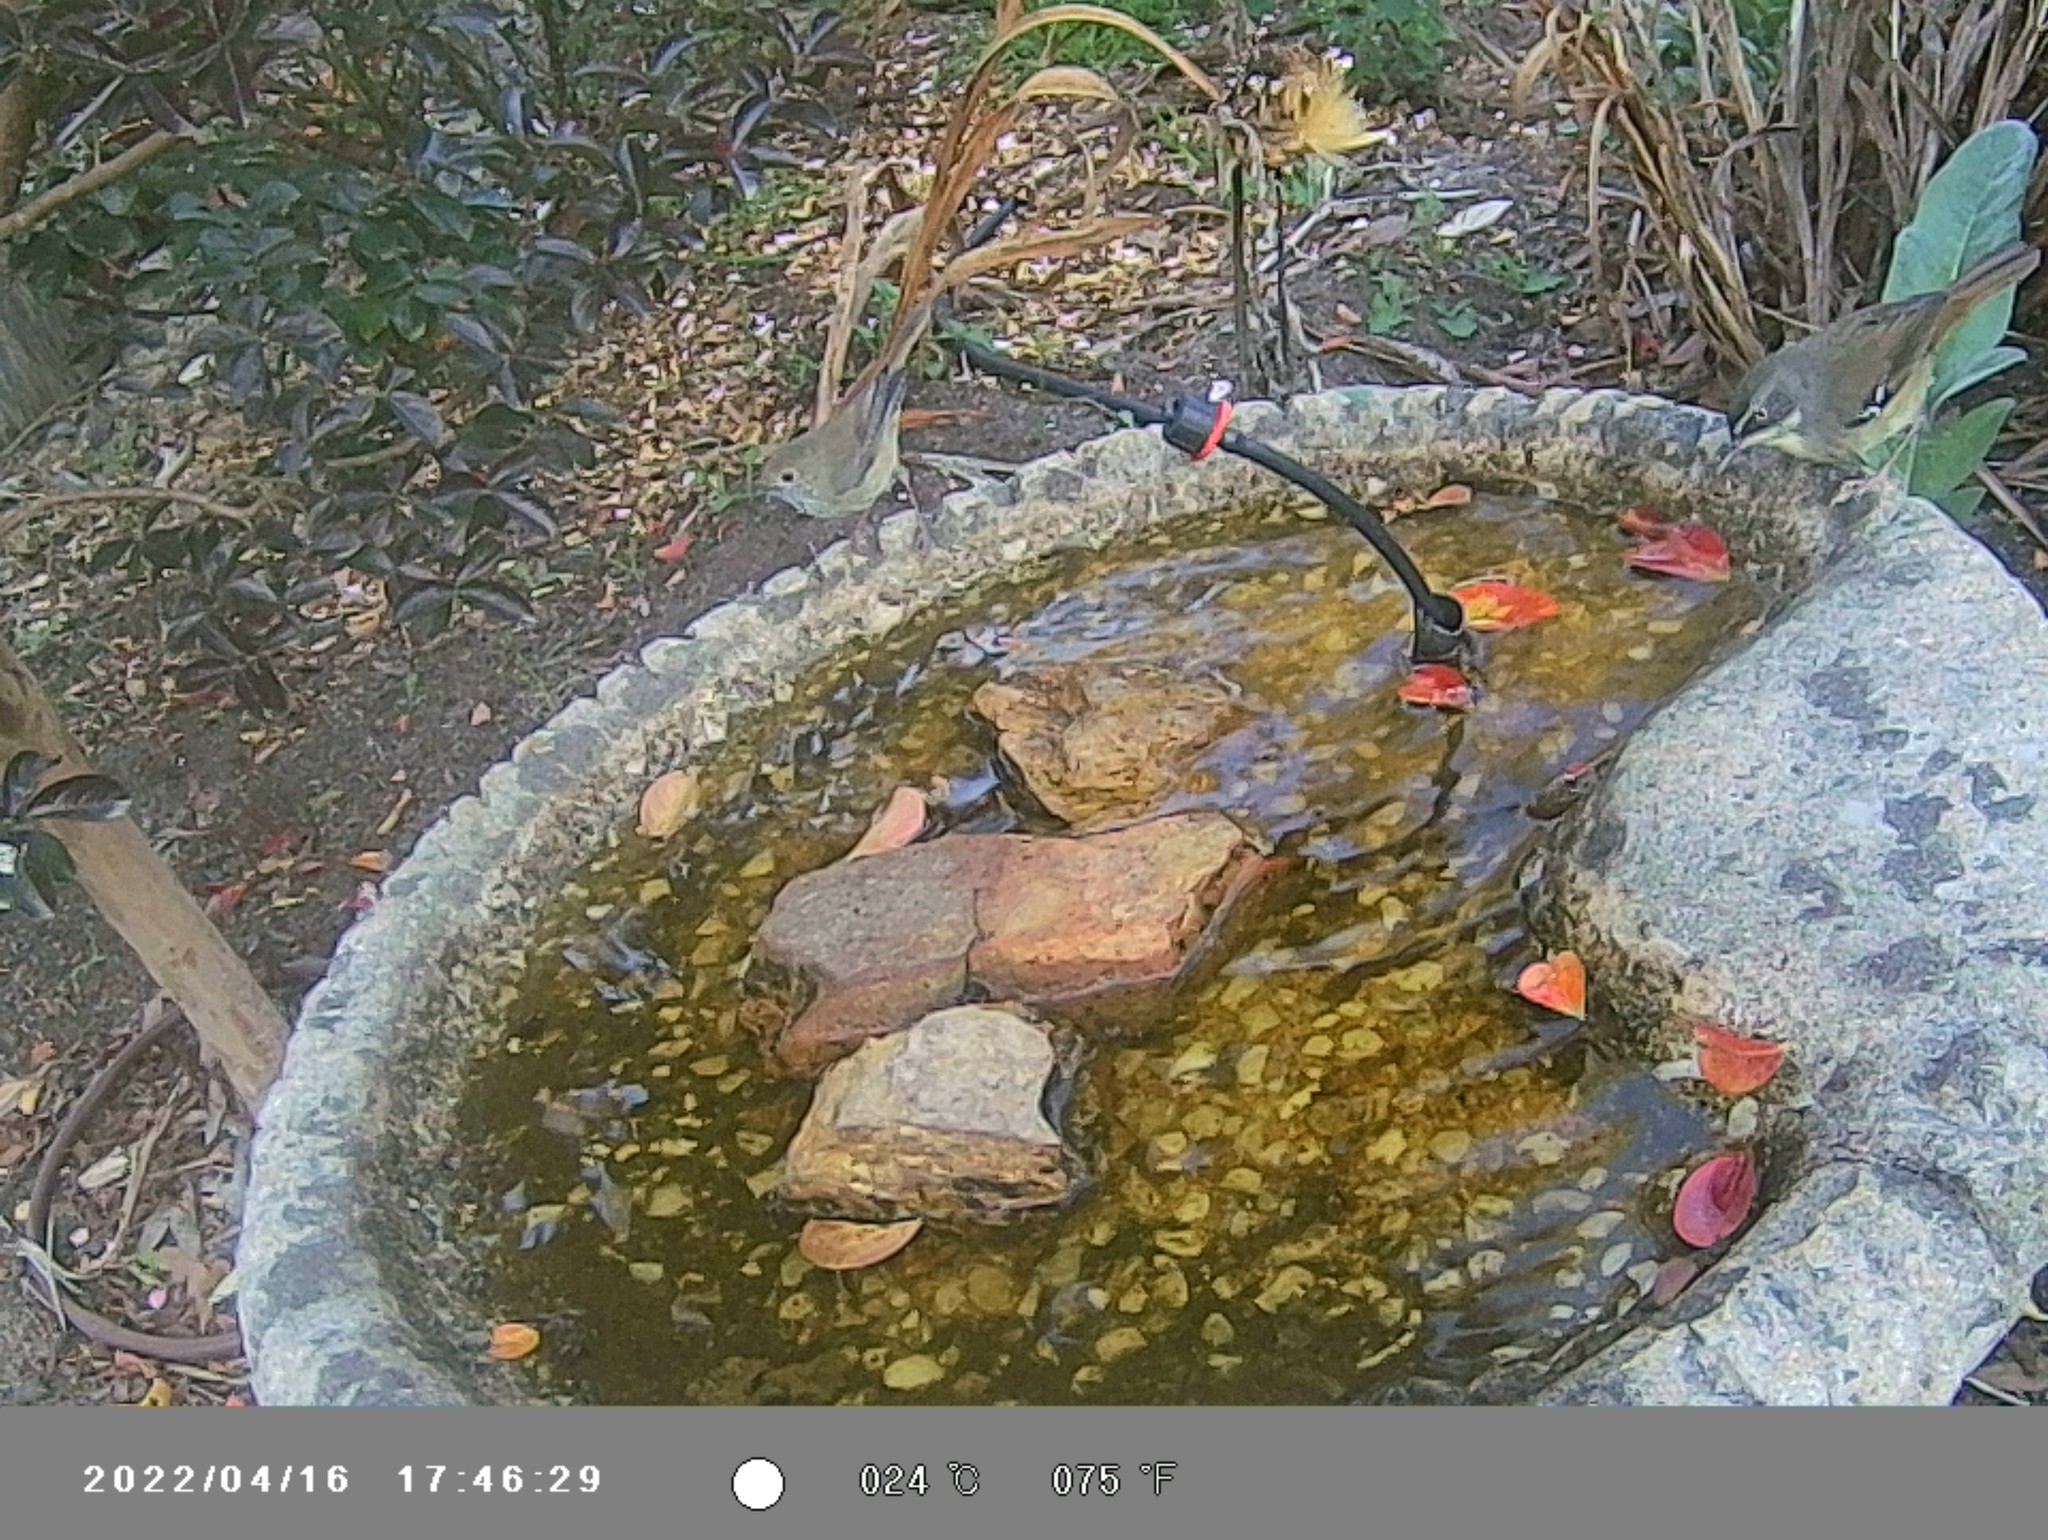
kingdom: Animalia
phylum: Chordata
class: Aves
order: Passeriformes
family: Acanthizidae
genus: Acanthiza
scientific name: Acanthiza pusilla
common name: Brown thornbill
